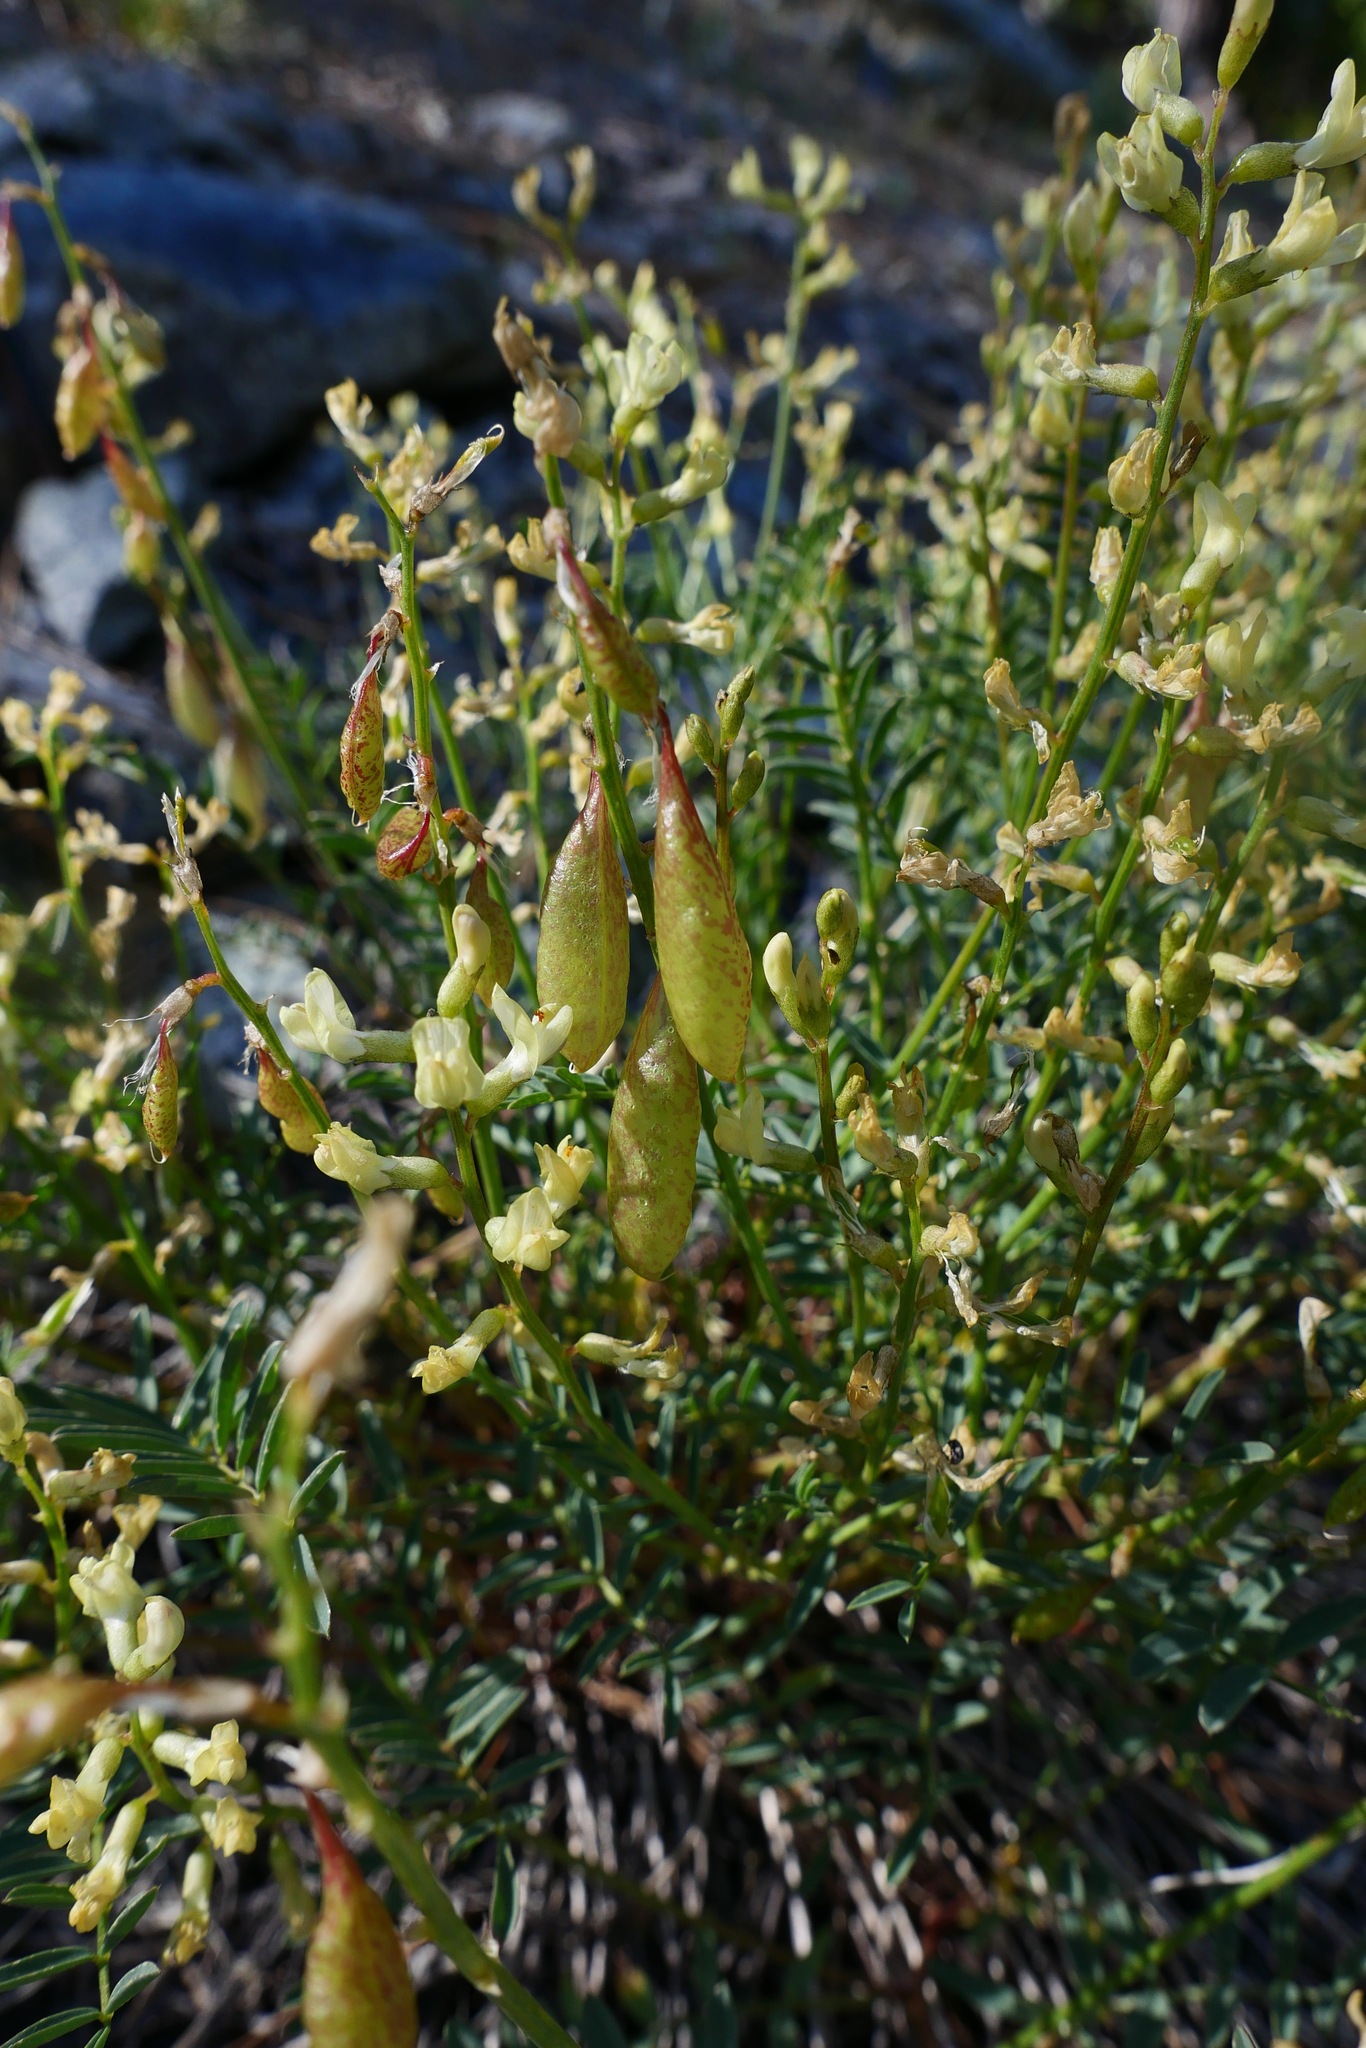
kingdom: Plantae
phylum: Tracheophyta
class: Magnoliopsida
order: Fabales
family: Fabaceae
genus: Astragalus
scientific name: Astragalus whitneyi
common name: Balloonpod milkvetch
